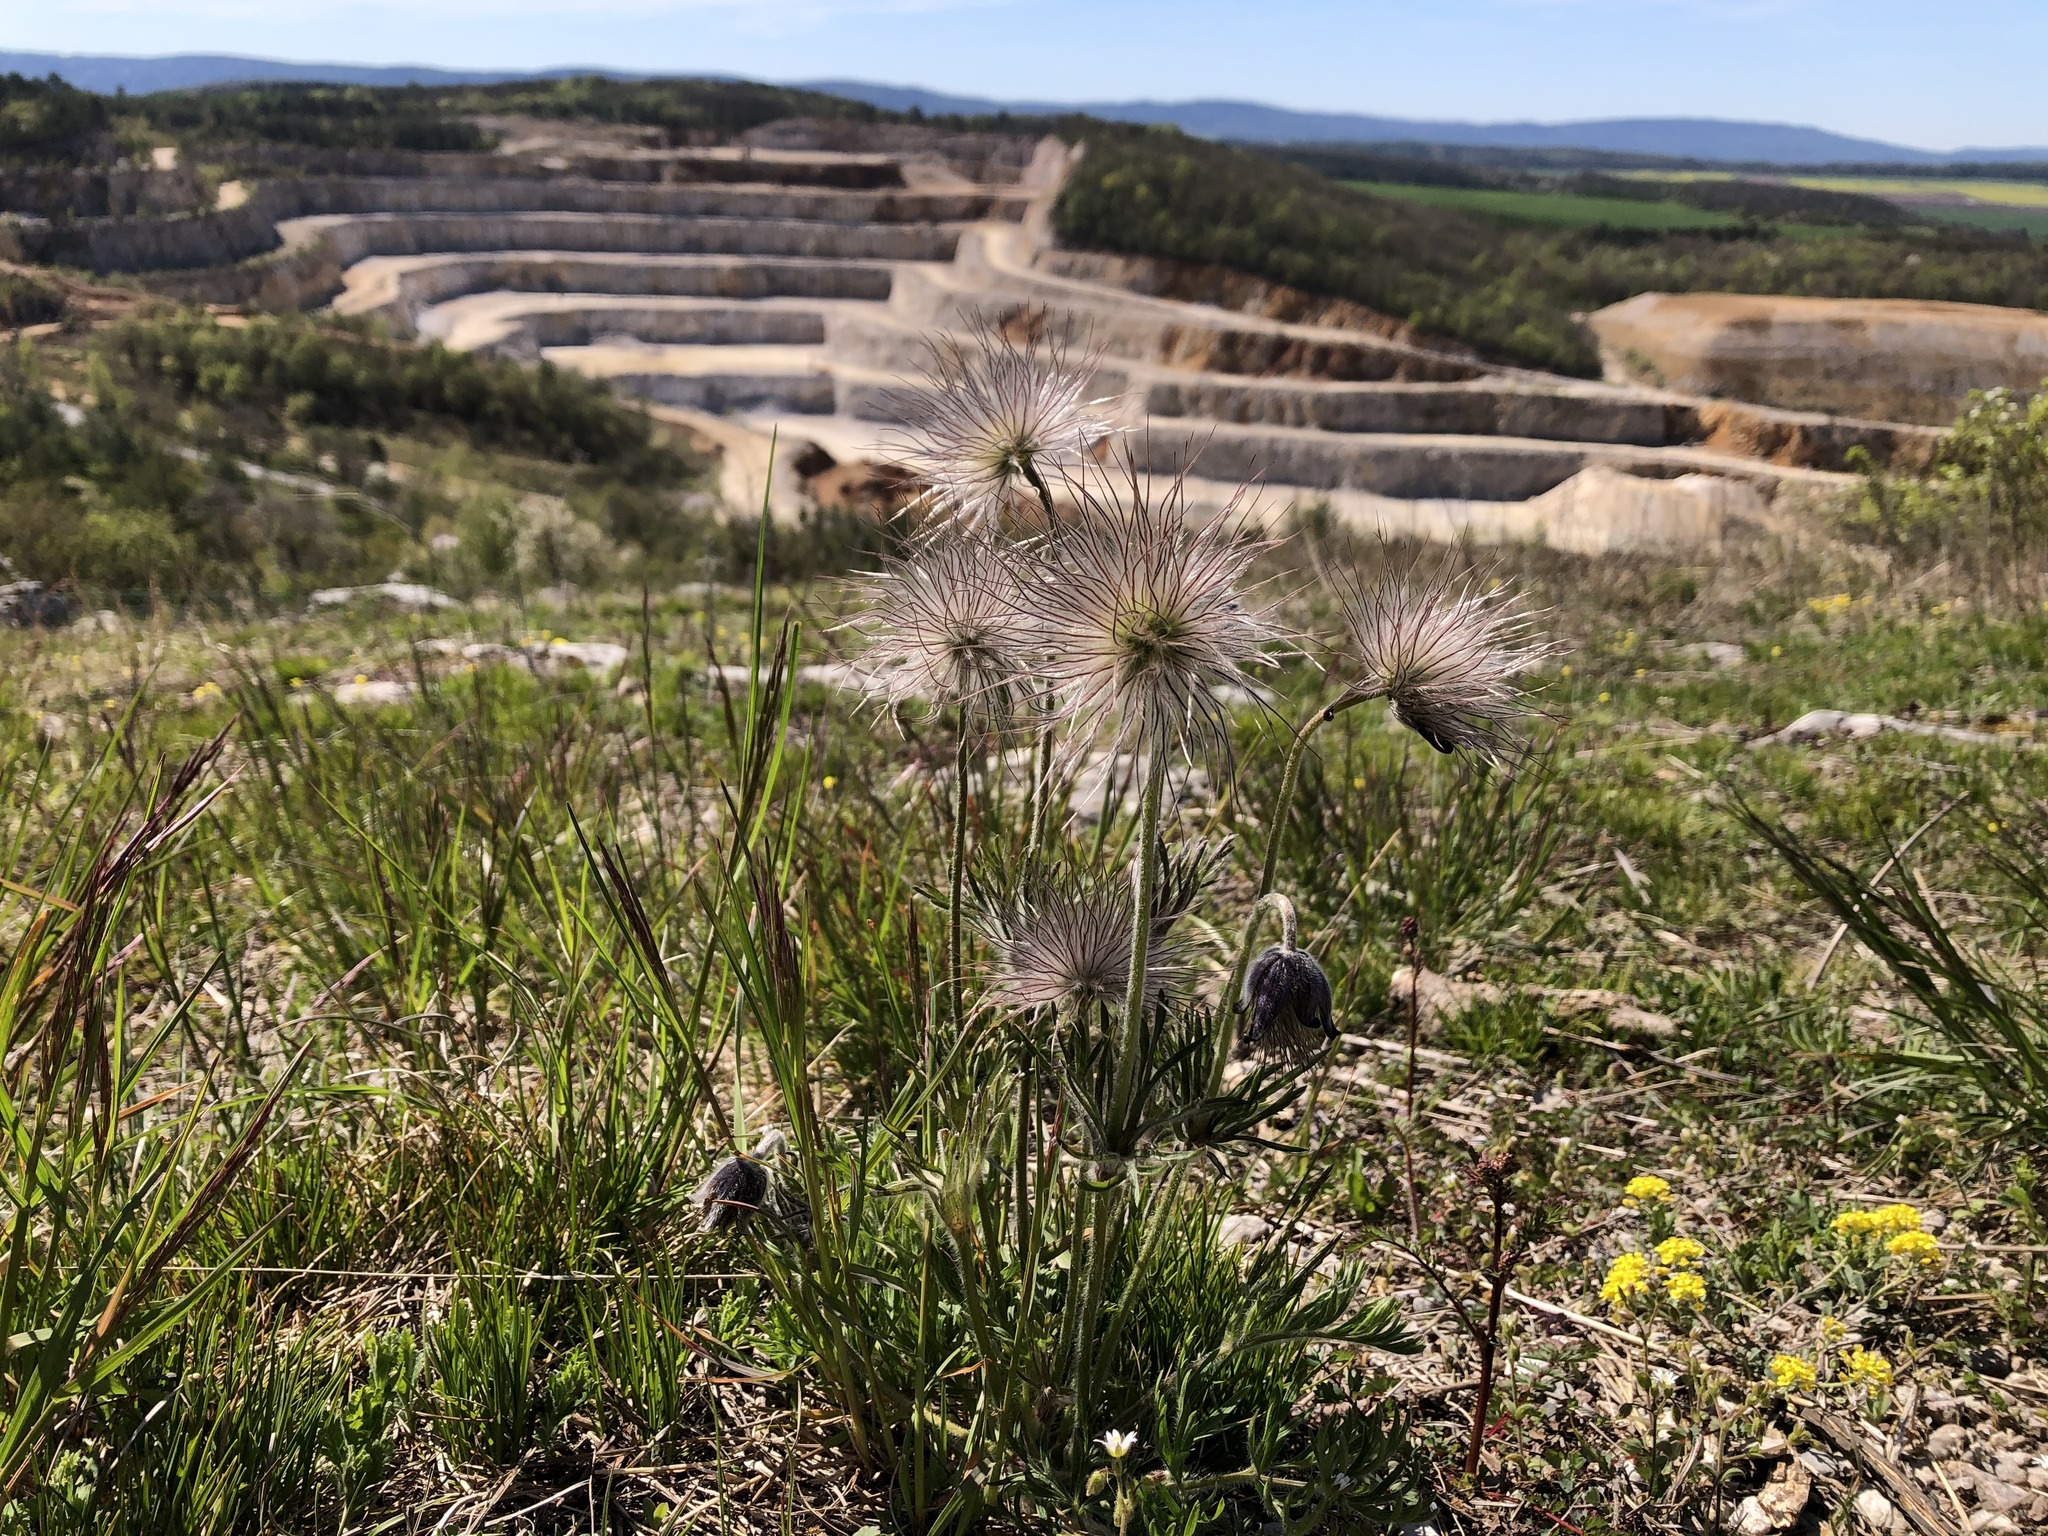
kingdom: Plantae
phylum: Tracheophyta
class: Magnoliopsida
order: Ranunculales
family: Ranunculaceae
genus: Pulsatilla
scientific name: Pulsatilla pratensis
